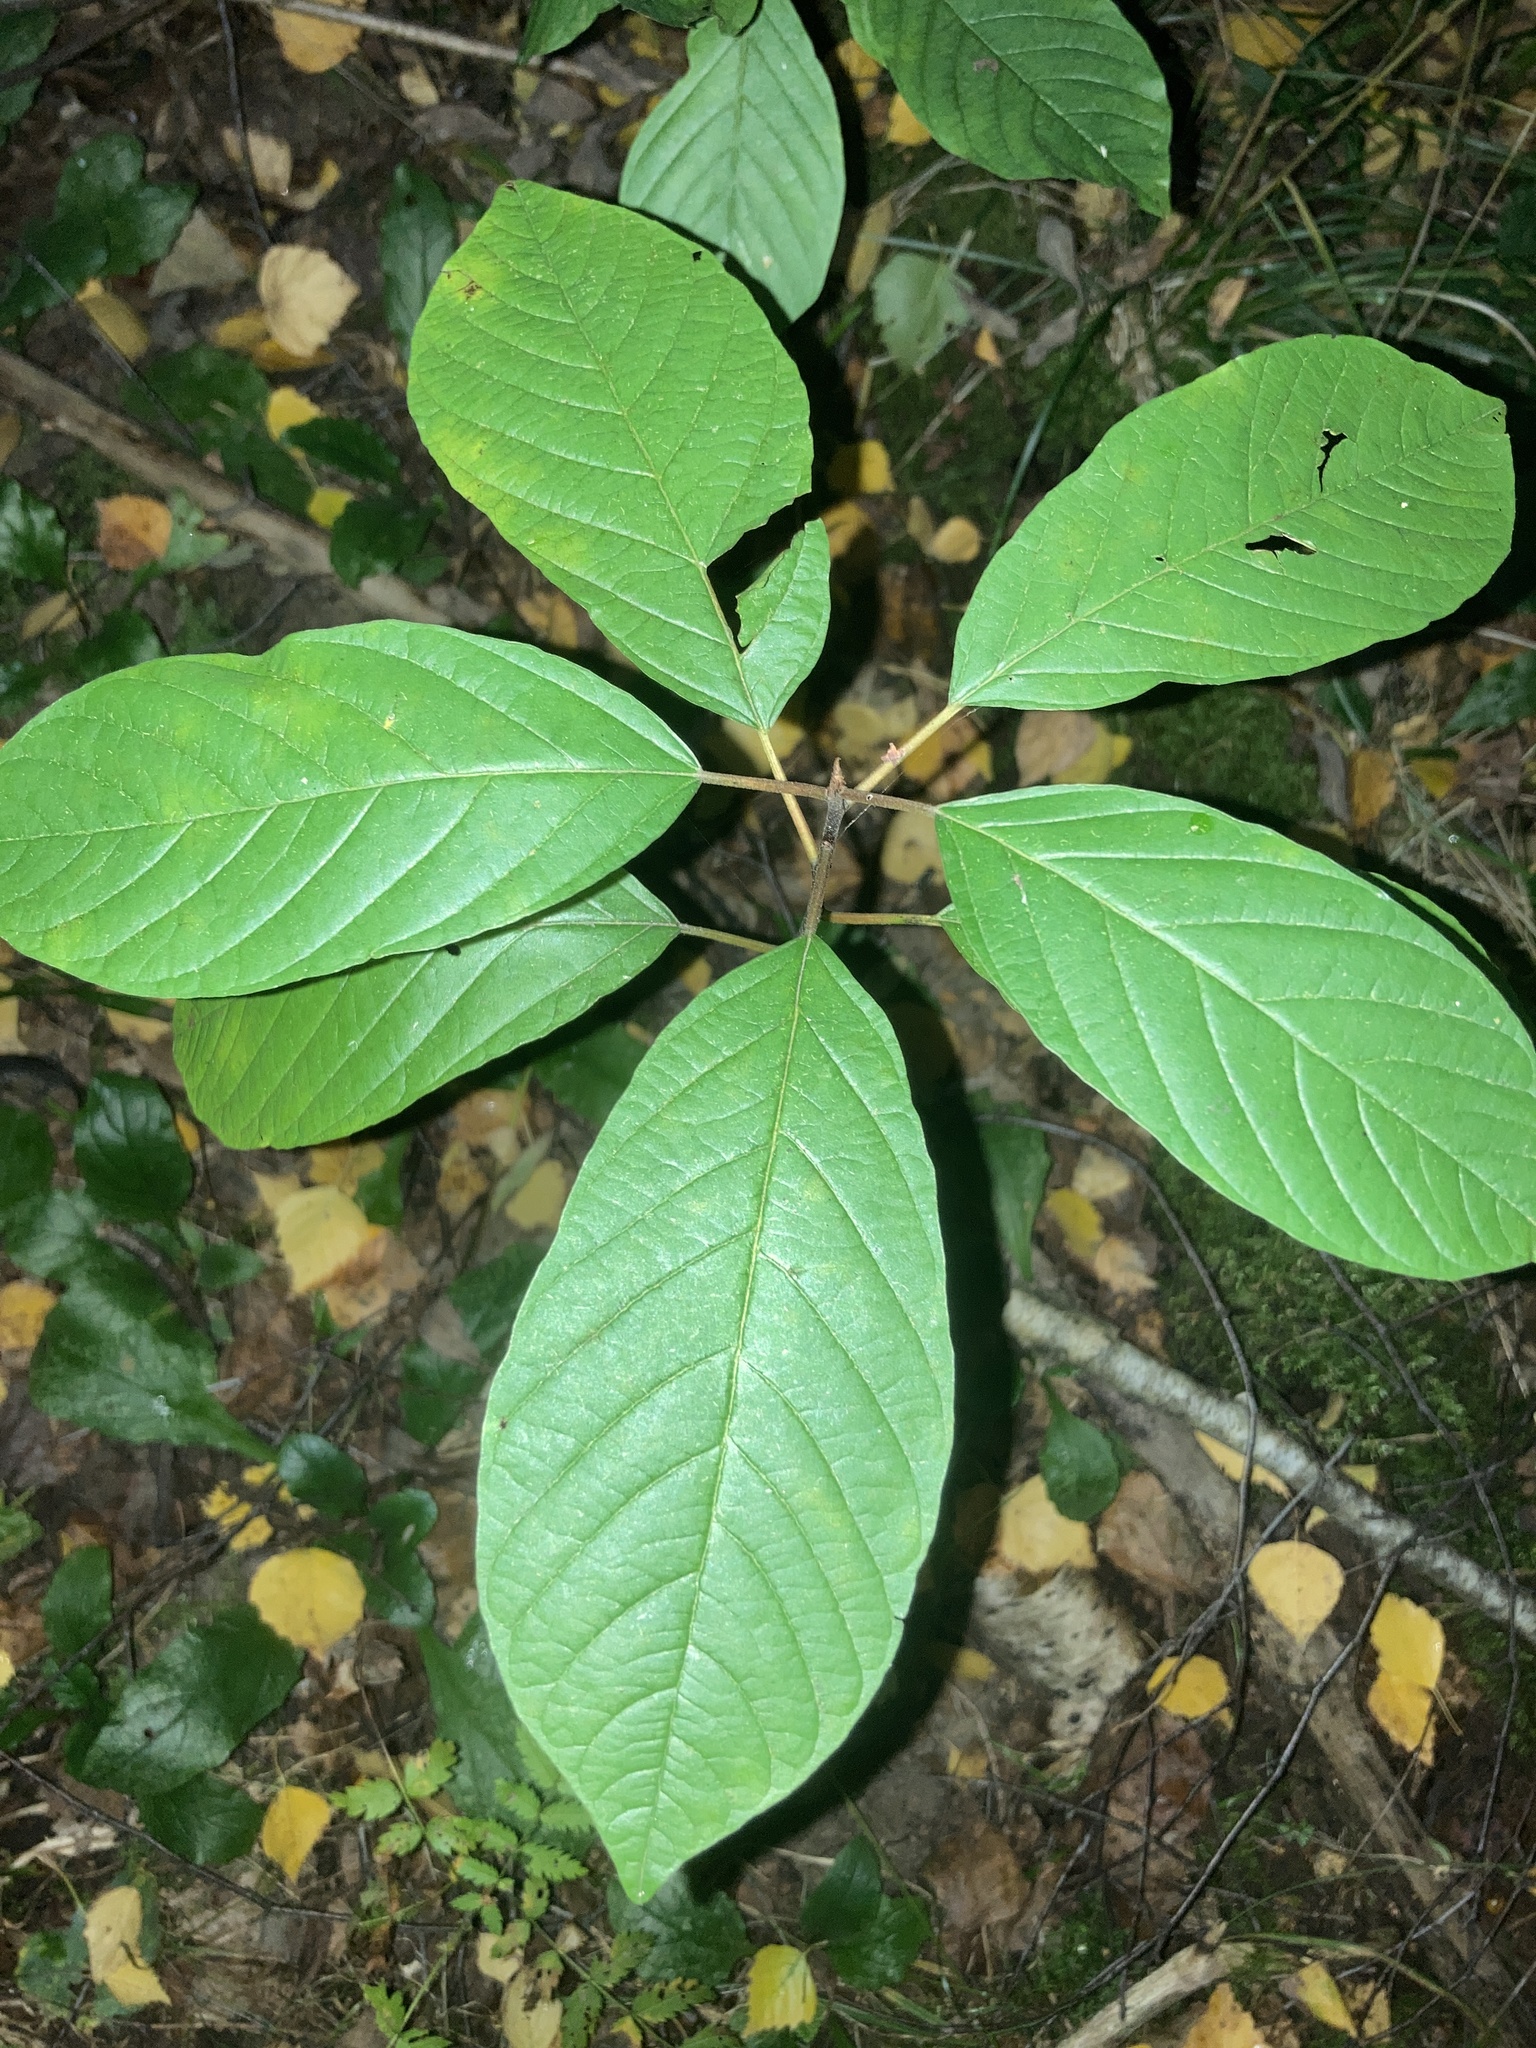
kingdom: Plantae
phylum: Tracheophyta
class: Magnoliopsida
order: Rosales
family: Rhamnaceae
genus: Frangula
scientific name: Frangula alnus
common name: Alder buckthorn
